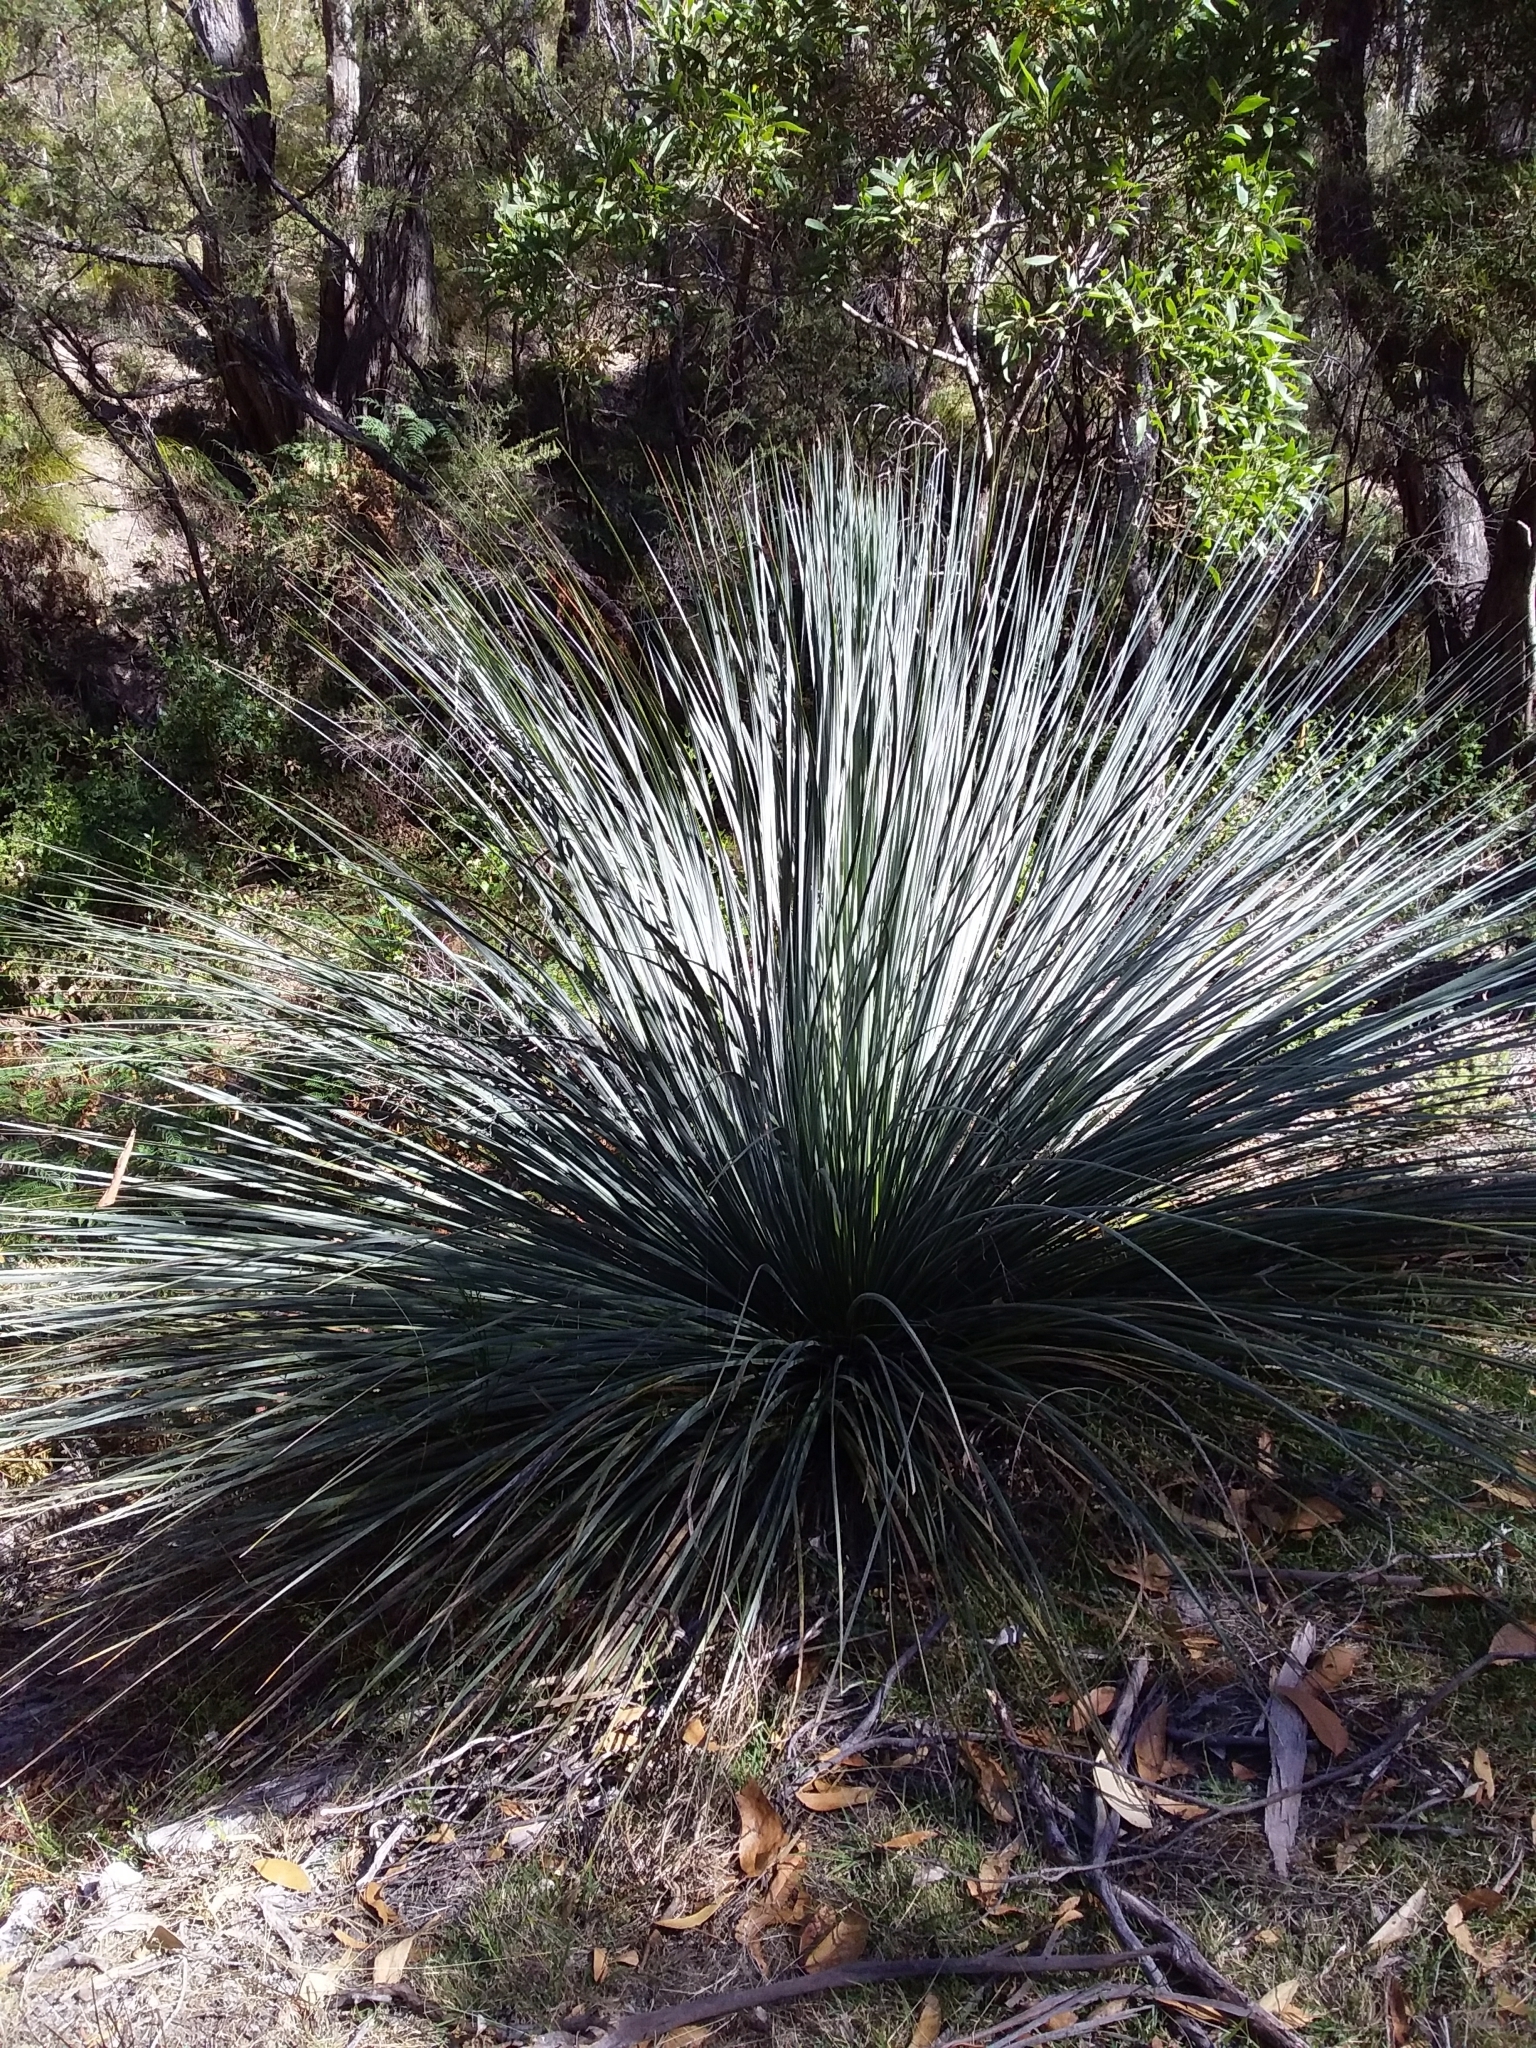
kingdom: Plantae
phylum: Tracheophyta
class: Liliopsida
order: Asparagales
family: Asphodelaceae
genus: Xanthorrhoea
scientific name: Xanthorrhoea semiplana
